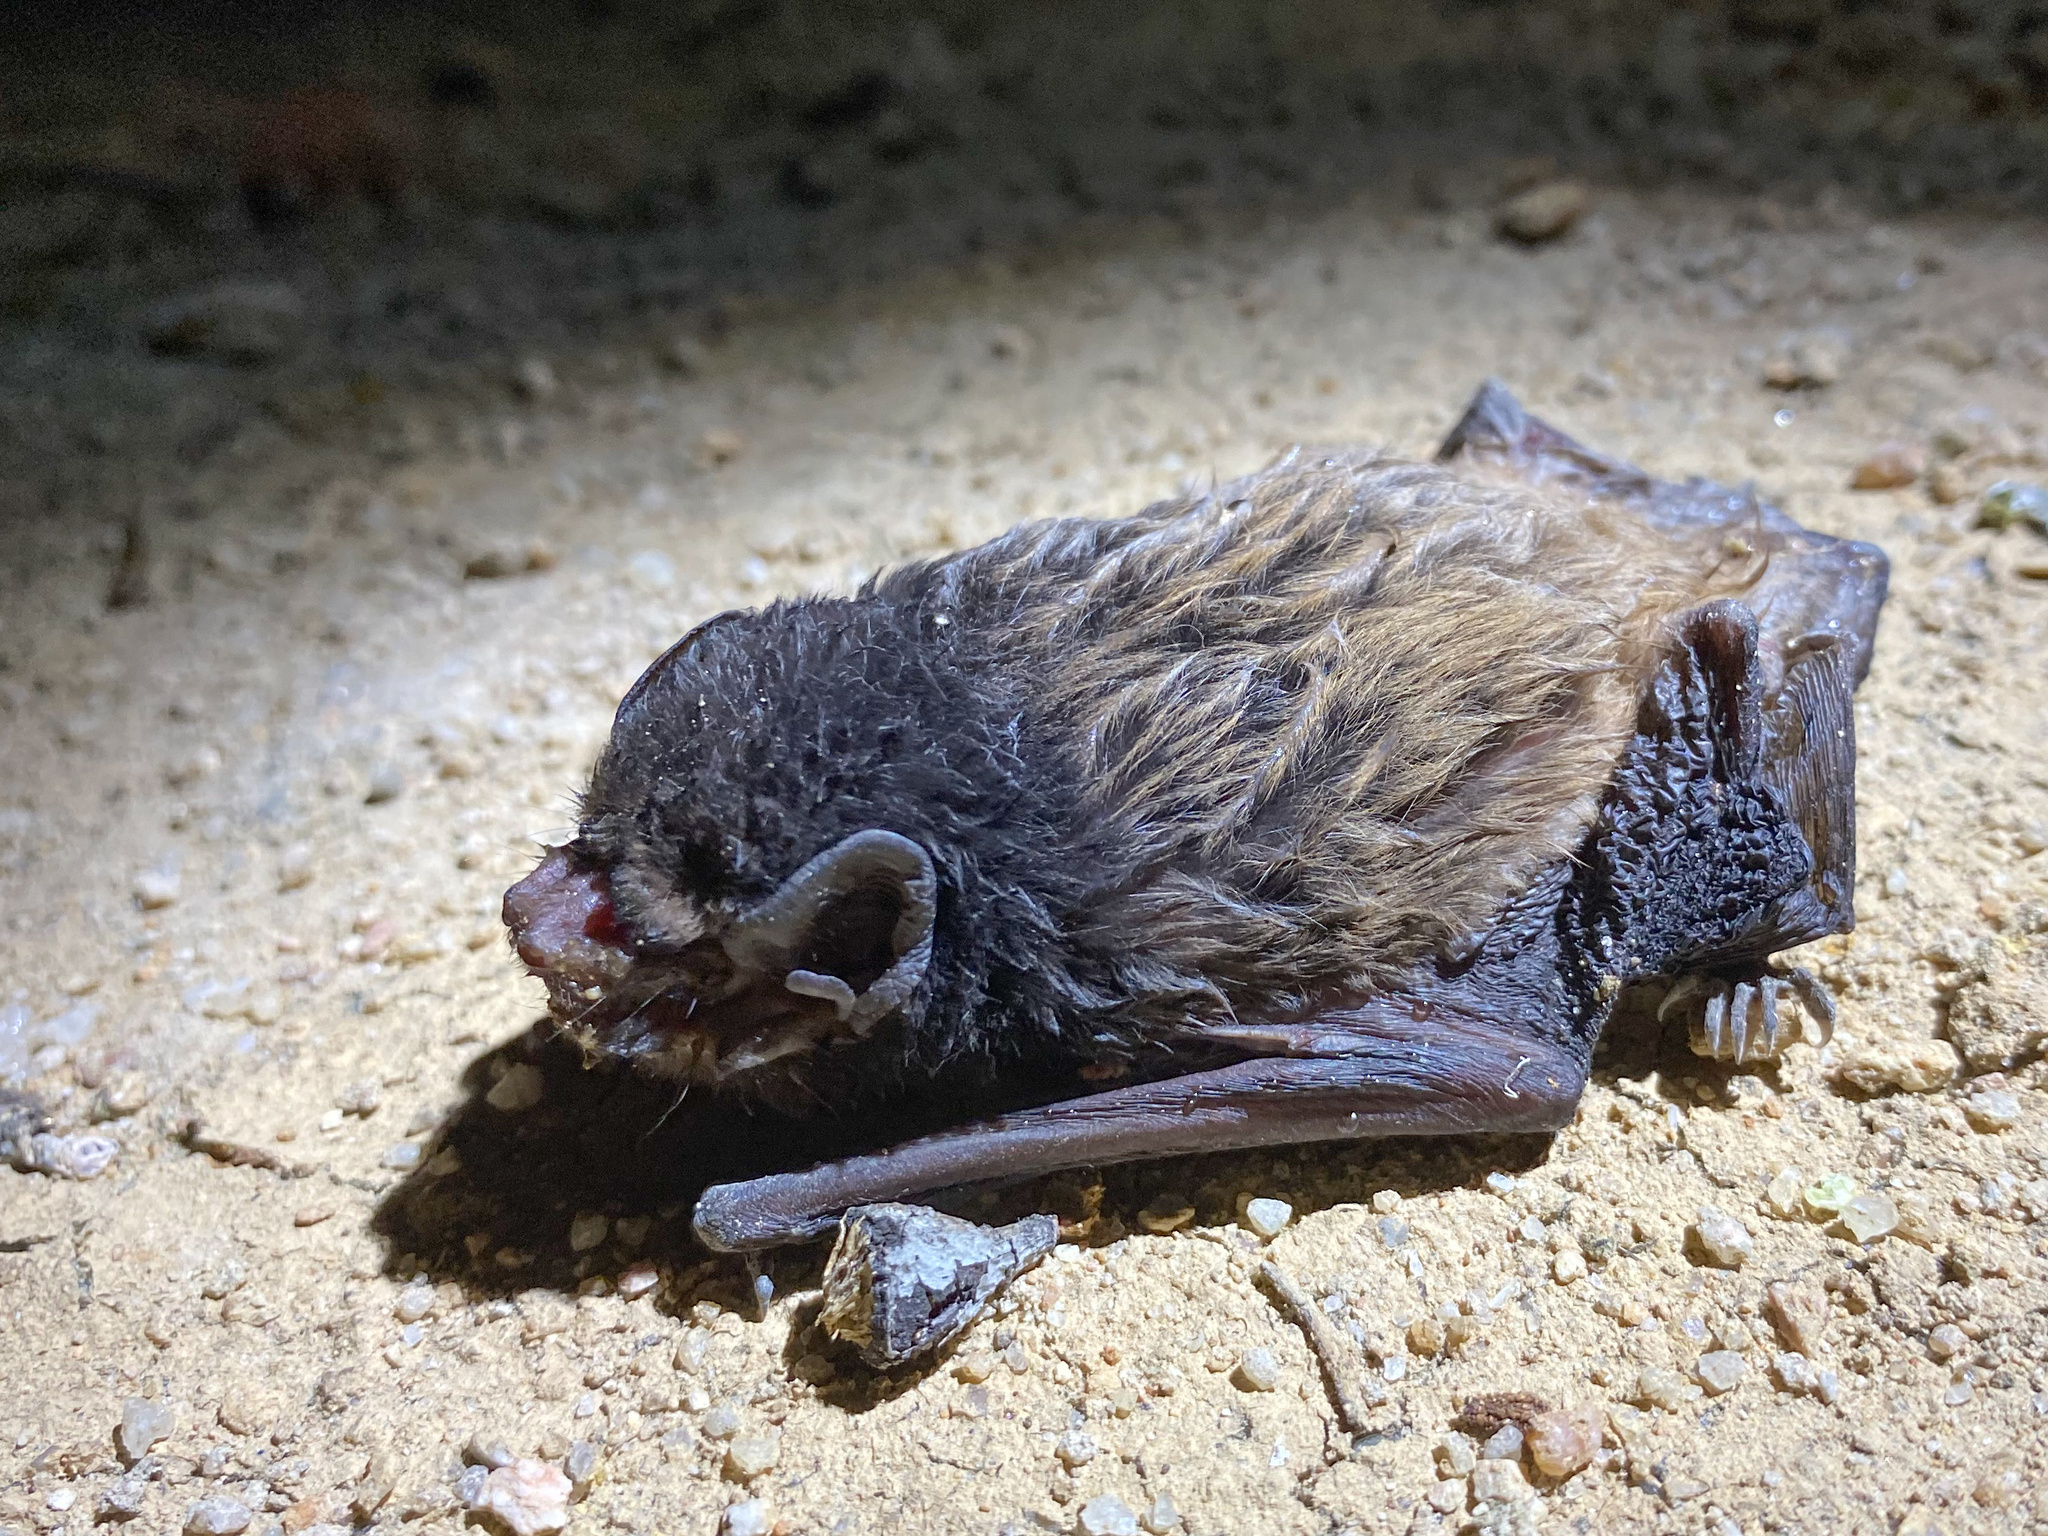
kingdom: Animalia
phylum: Chordata
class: Mammalia
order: Chiroptera
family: Vespertilionidae
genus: Chalinolobus
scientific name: Chalinolobus gouldii
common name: Gould's wattled bat
